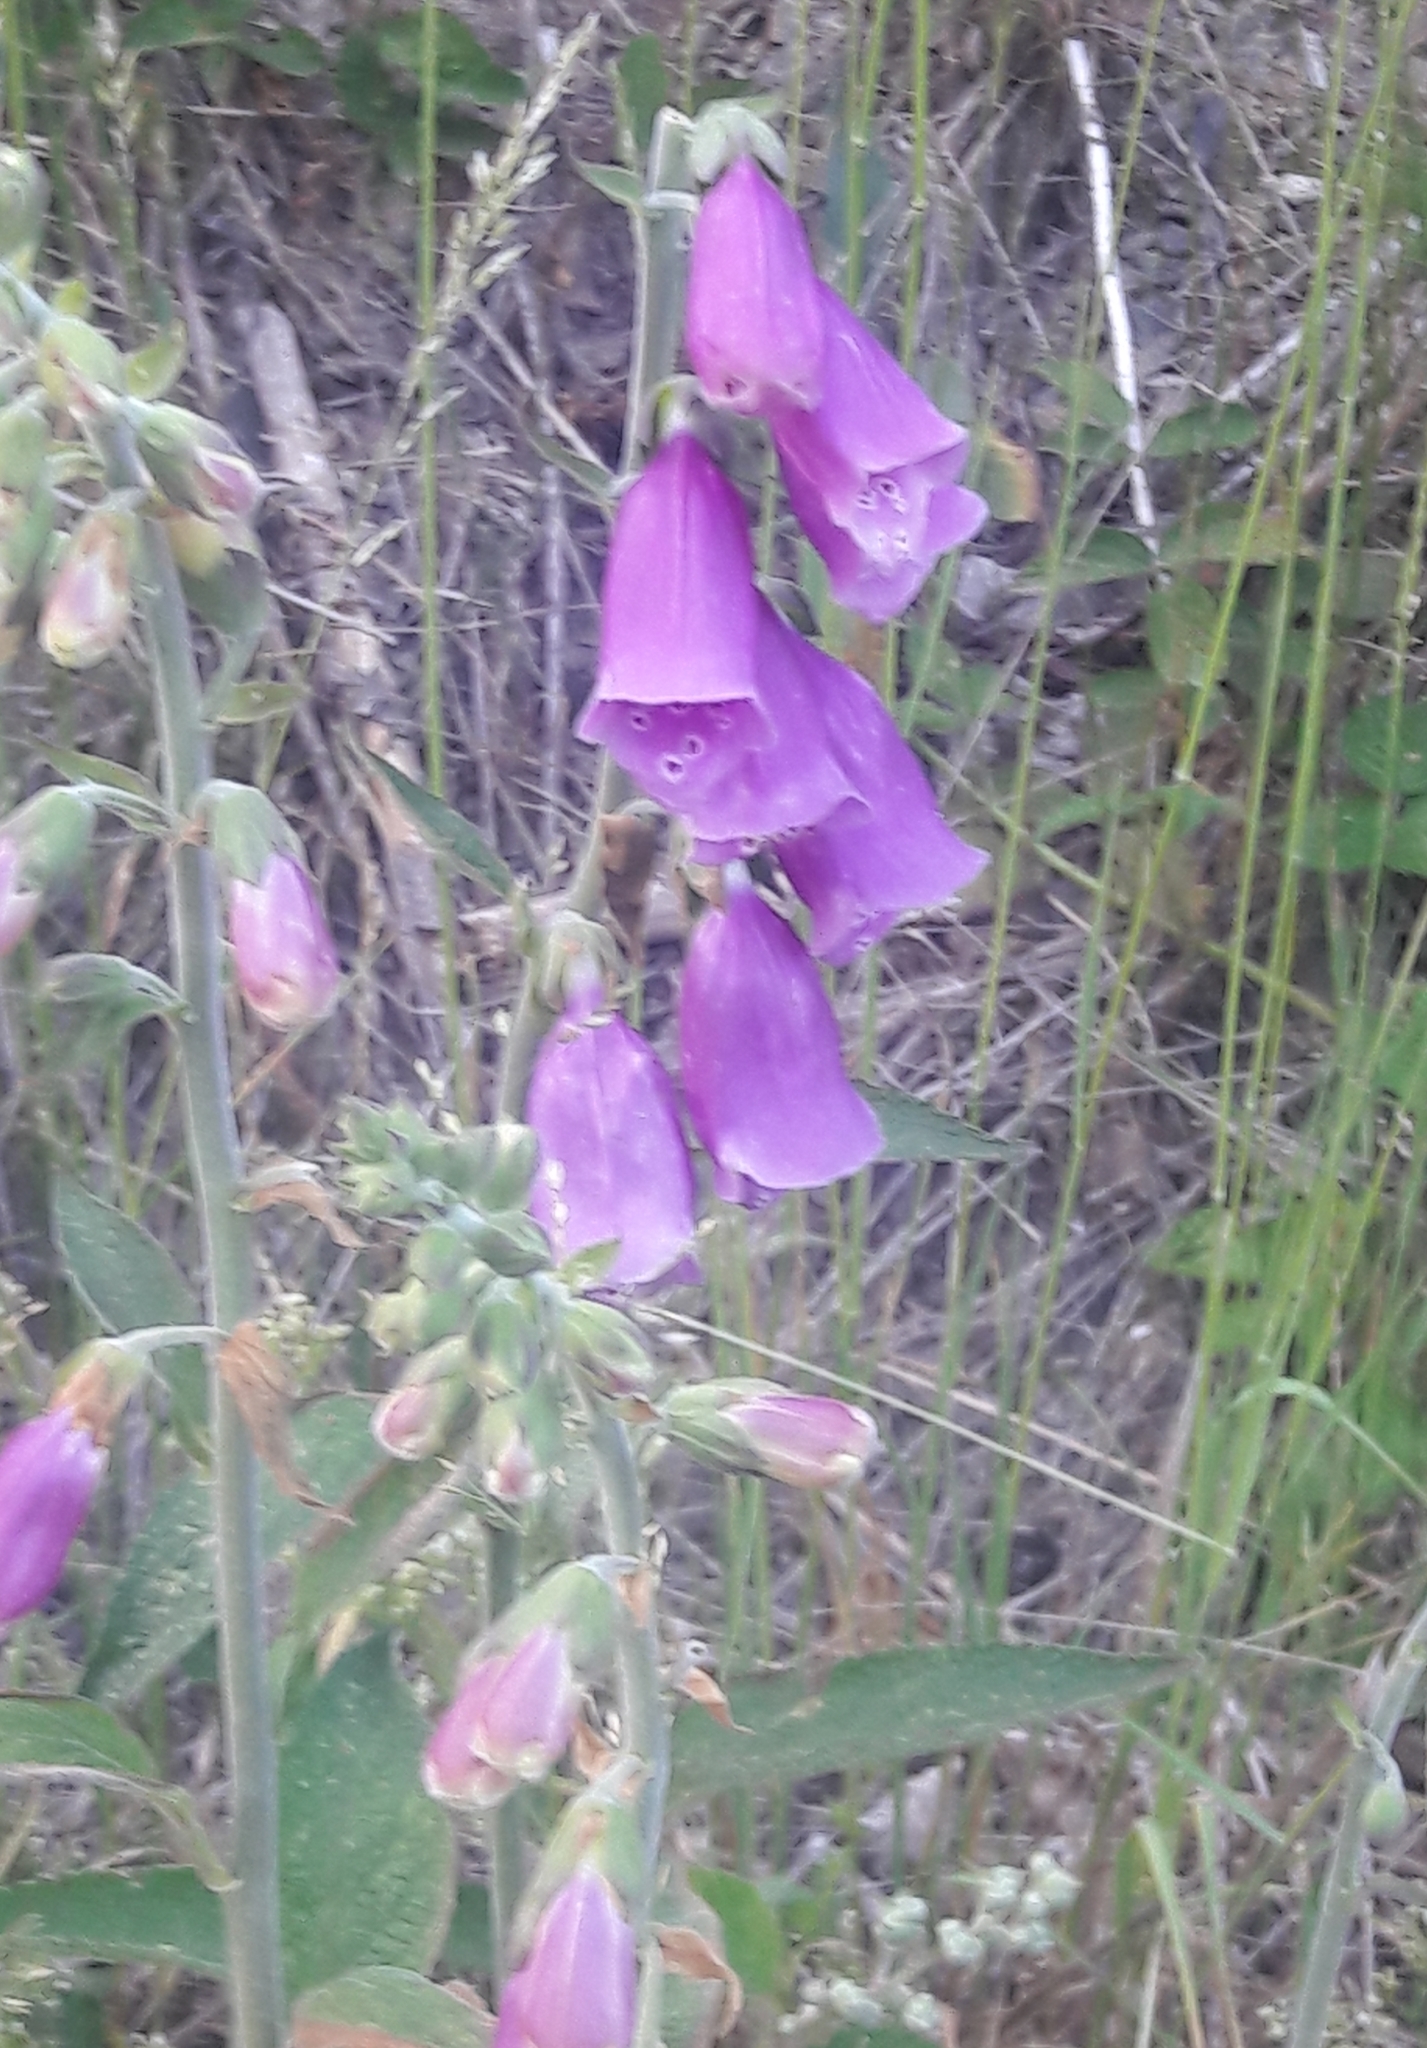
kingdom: Plantae
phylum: Tracheophyta
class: Magnoliopsida
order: Lamiales
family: Plantaginaceae
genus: Digitalis
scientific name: Digitalis purpurea
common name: Foxglove
